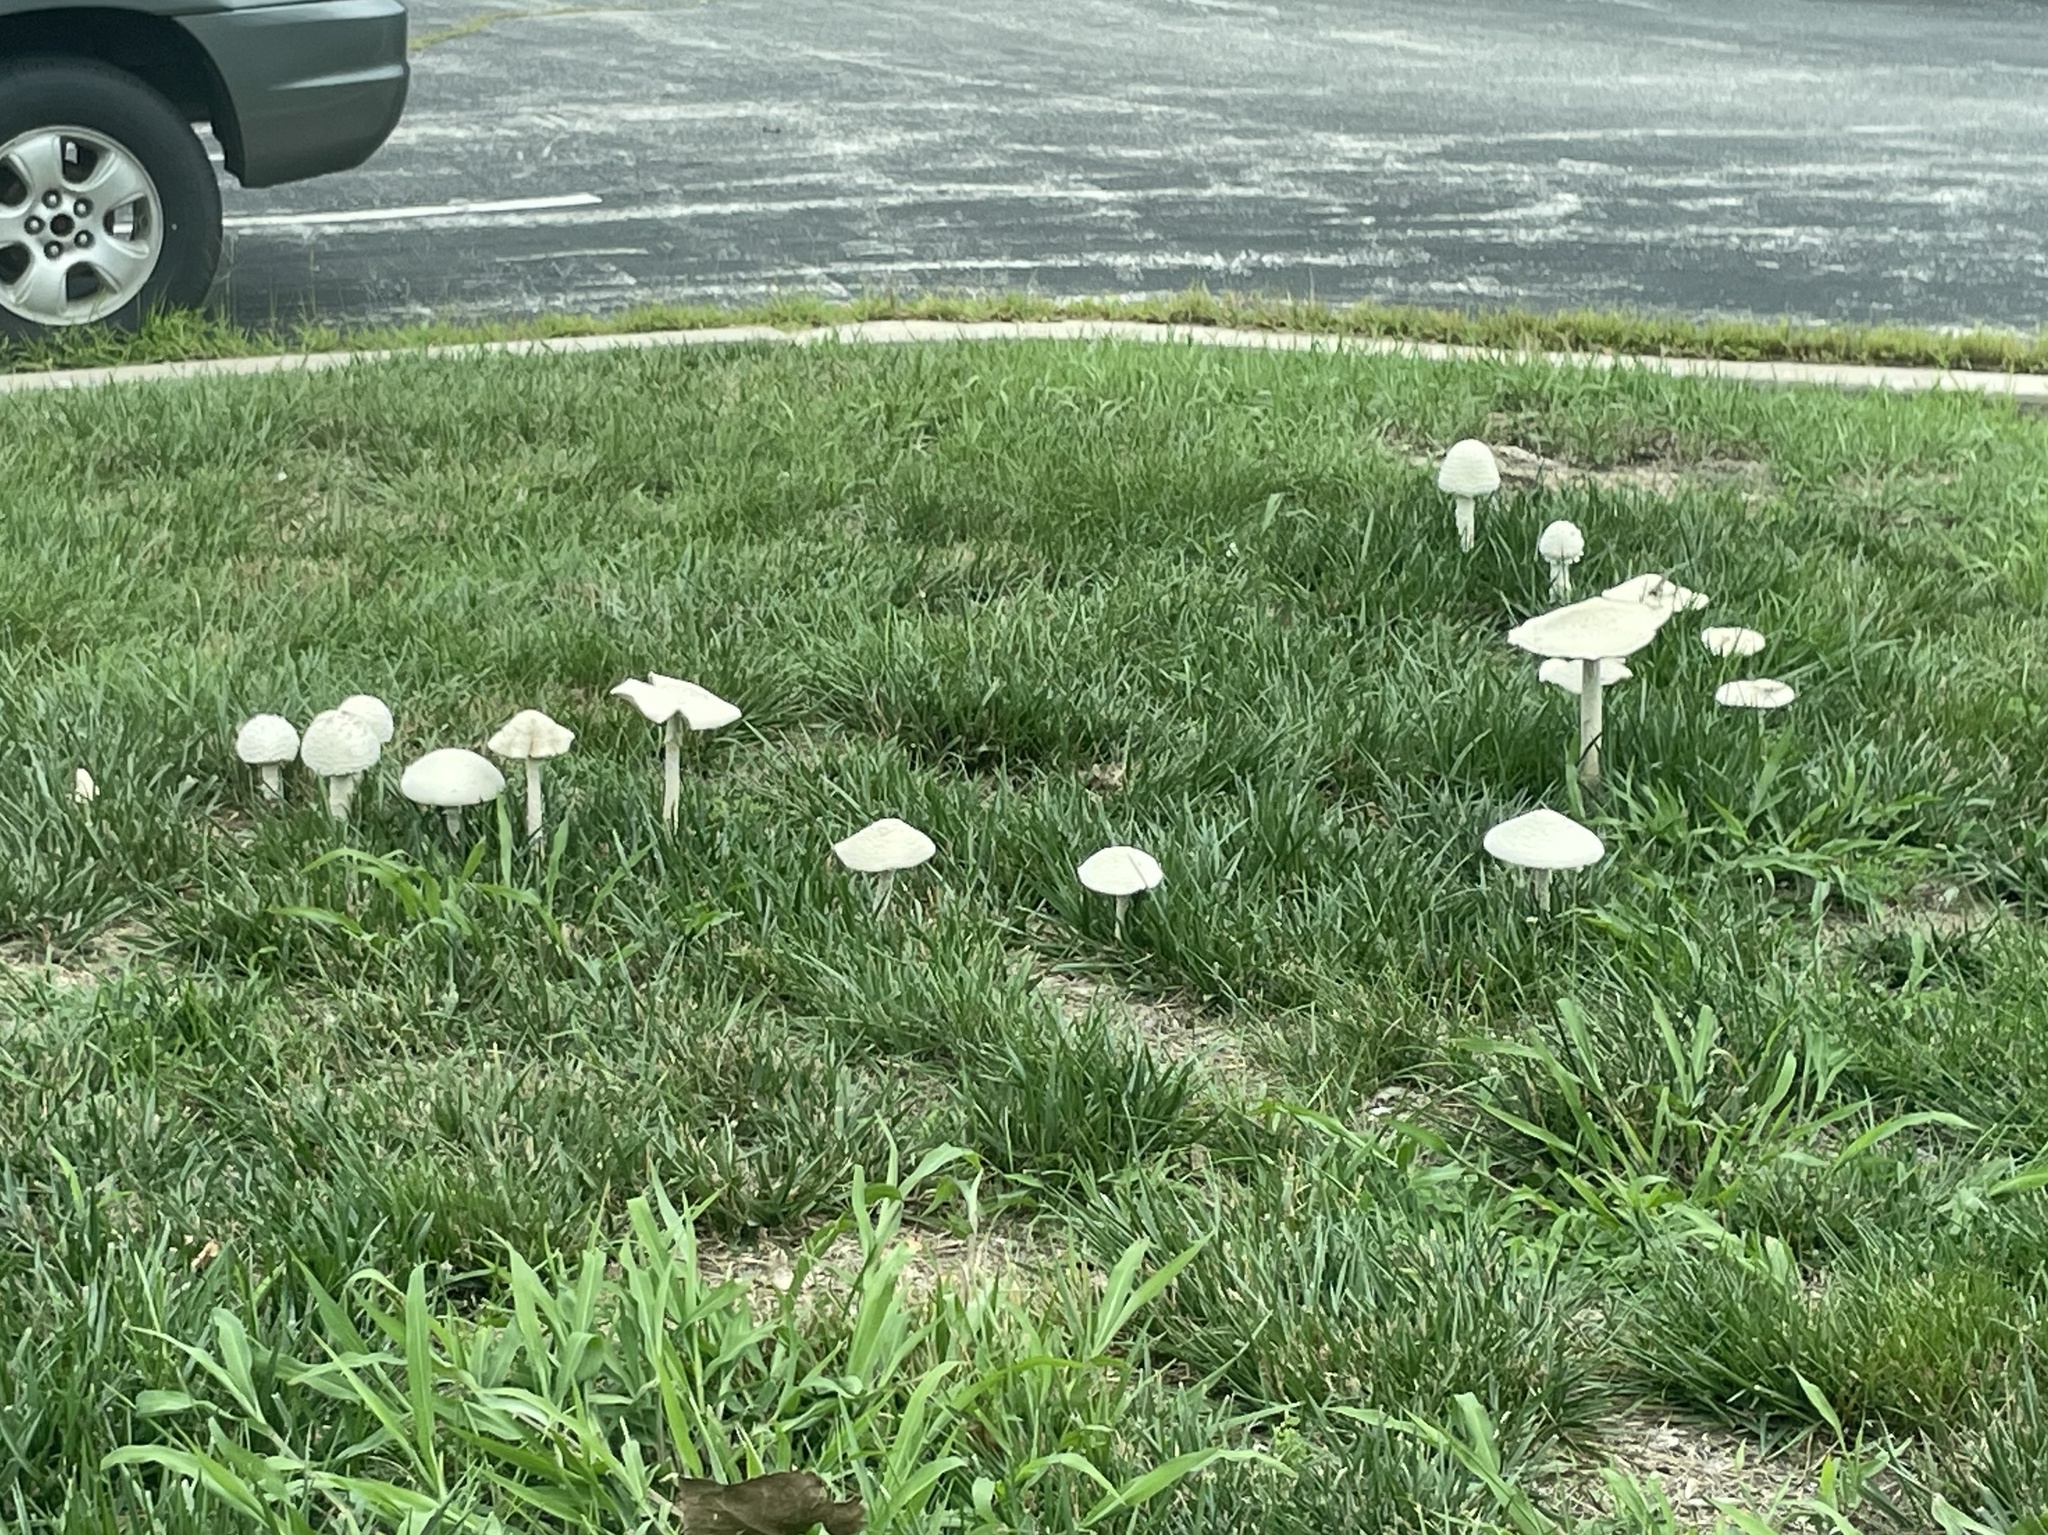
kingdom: Fungi
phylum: Basidiomycota
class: Agaricomycetes
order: Agaricales
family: Amanitaceae
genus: Amanita
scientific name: Amanita thiersii
